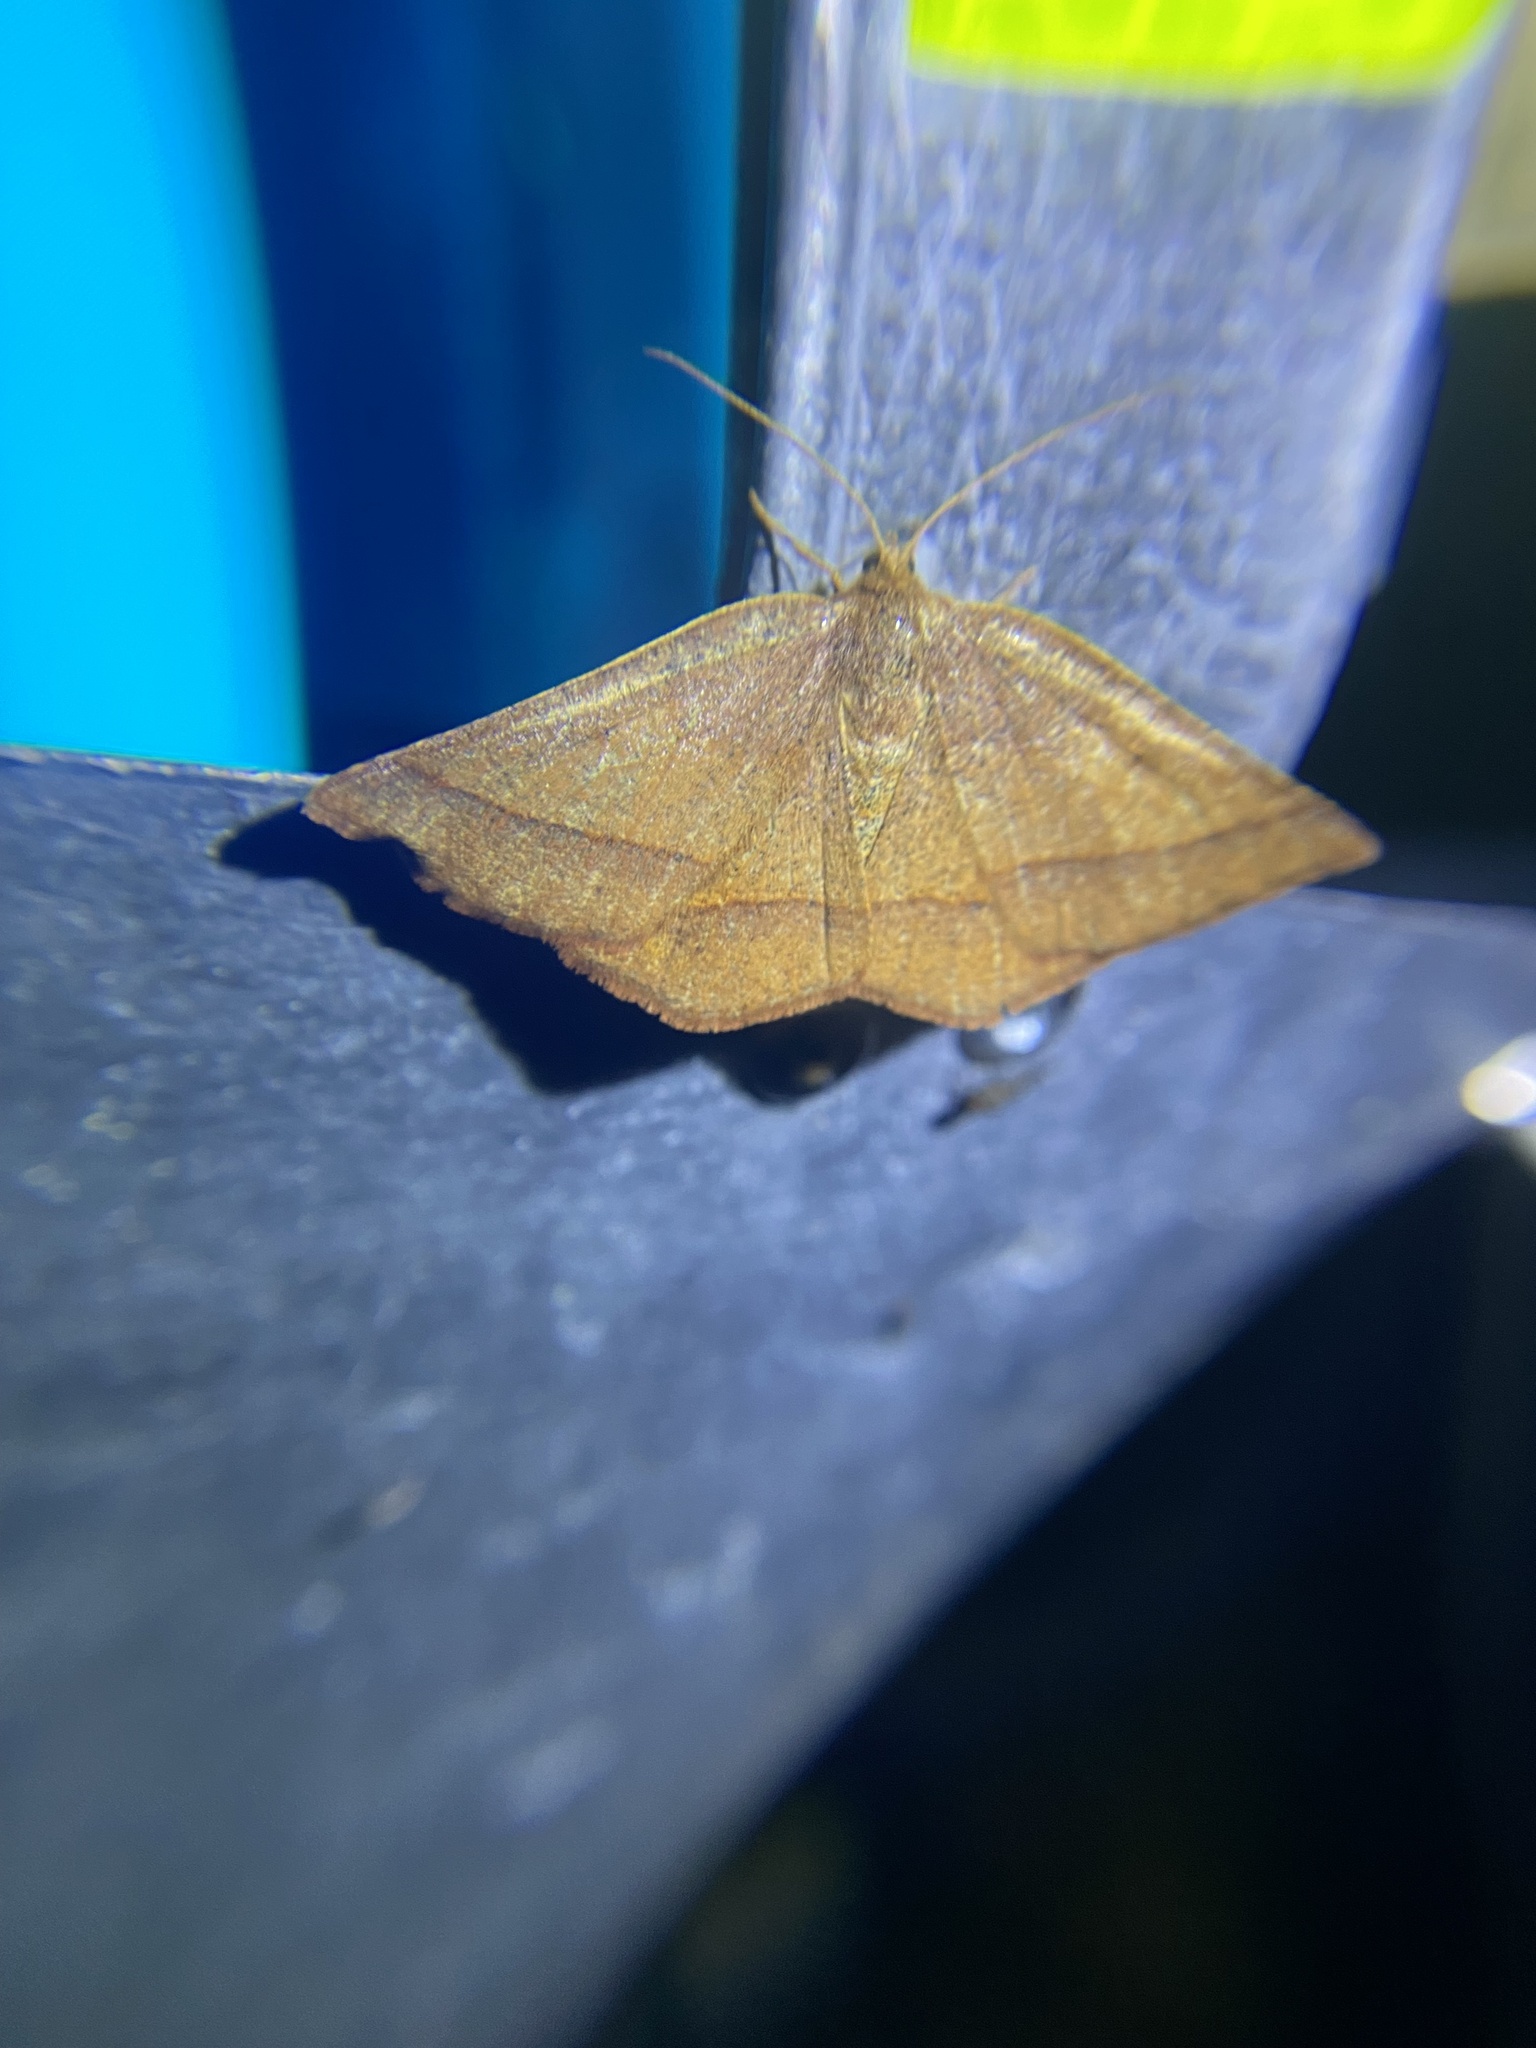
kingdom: Animalia
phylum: Arthropoda
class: Insecta
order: Lepidoptera
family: Geometridae
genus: Metarranthis
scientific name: Metarranthis obfirmaria
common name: Yellow-washed metarranthis
